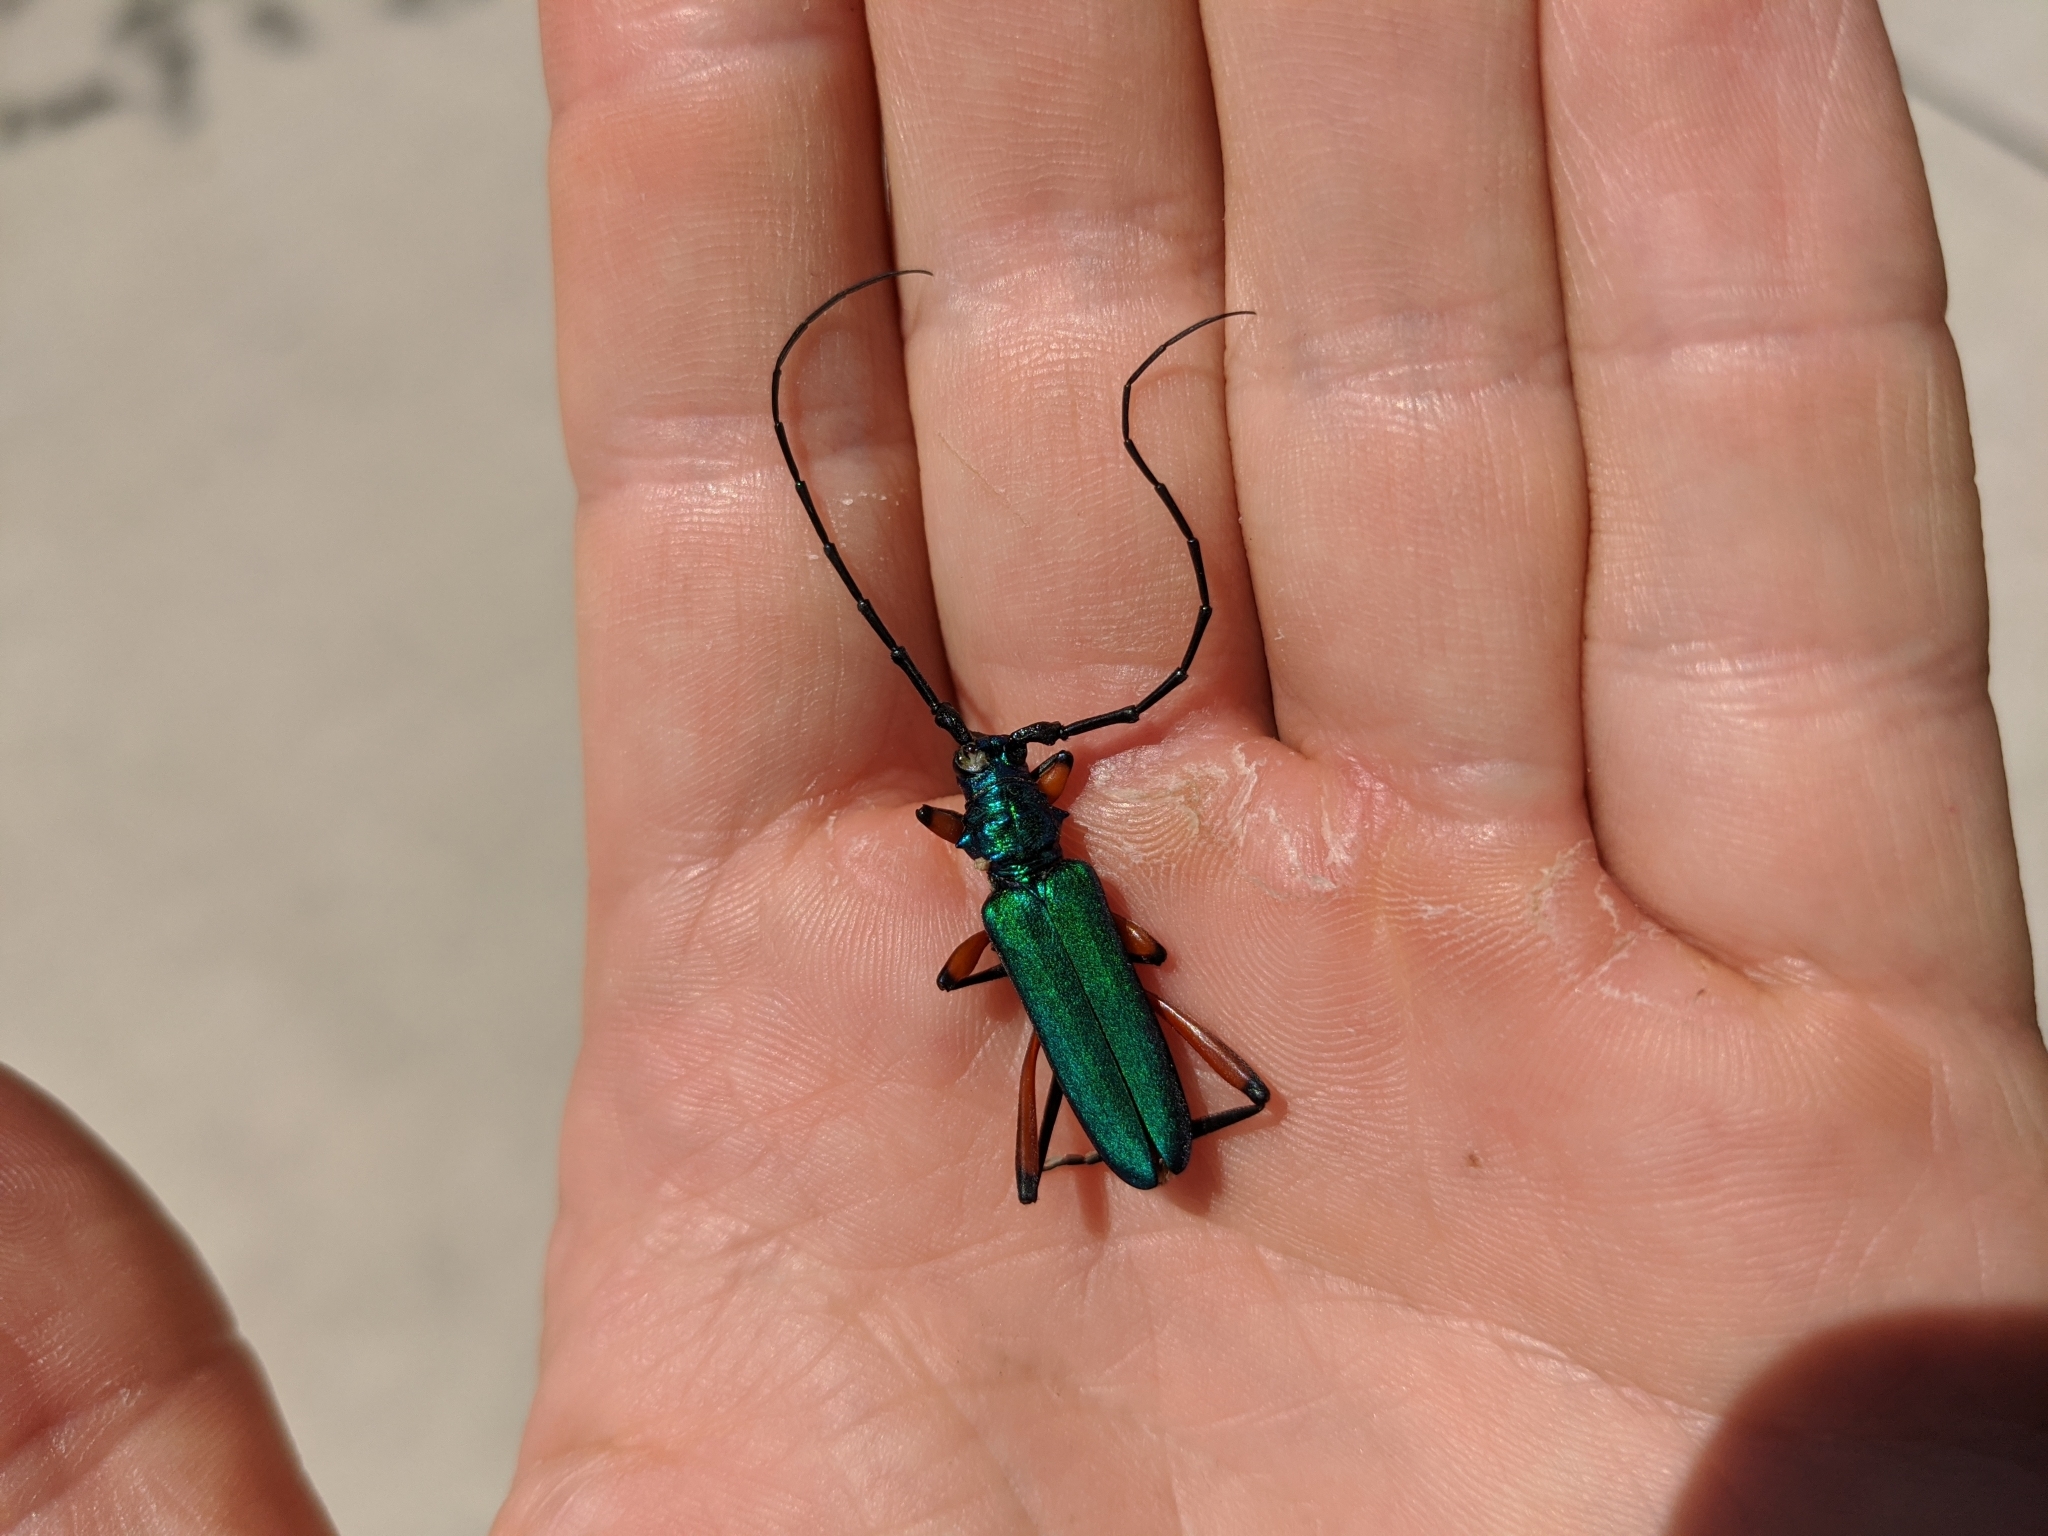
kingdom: Animalia
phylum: Arthropoda
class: Insecta
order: Coleoptera
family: Cerambycidae
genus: Plinthocoelium
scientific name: Plinthocoelium suaveolens
